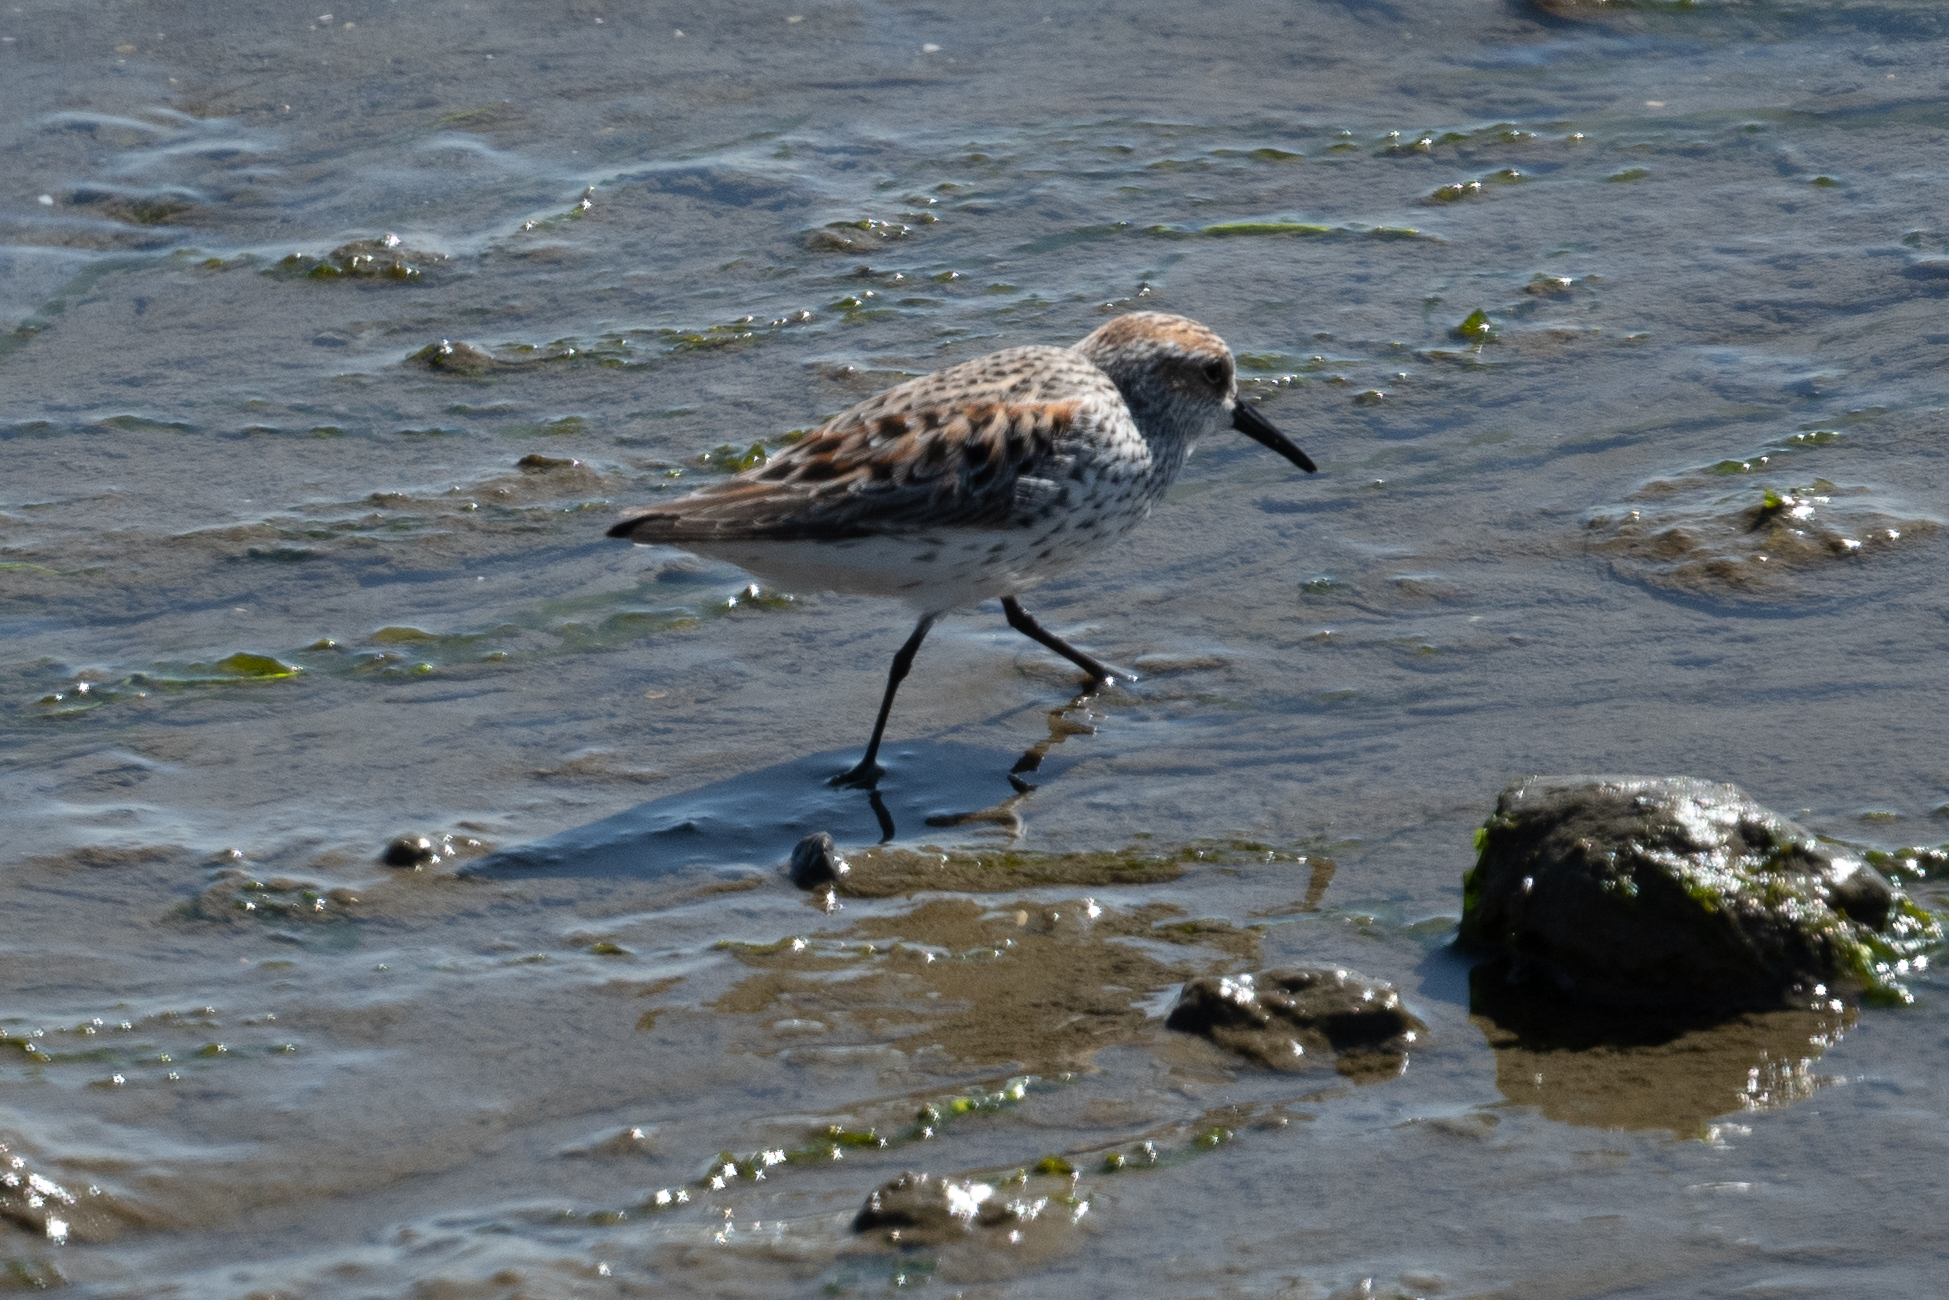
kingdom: Animalia
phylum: Chordata
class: Aves
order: Charadriiformes
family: Scolopacidae
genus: Calidris
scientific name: Calidris mauri
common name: Western sandpiper
